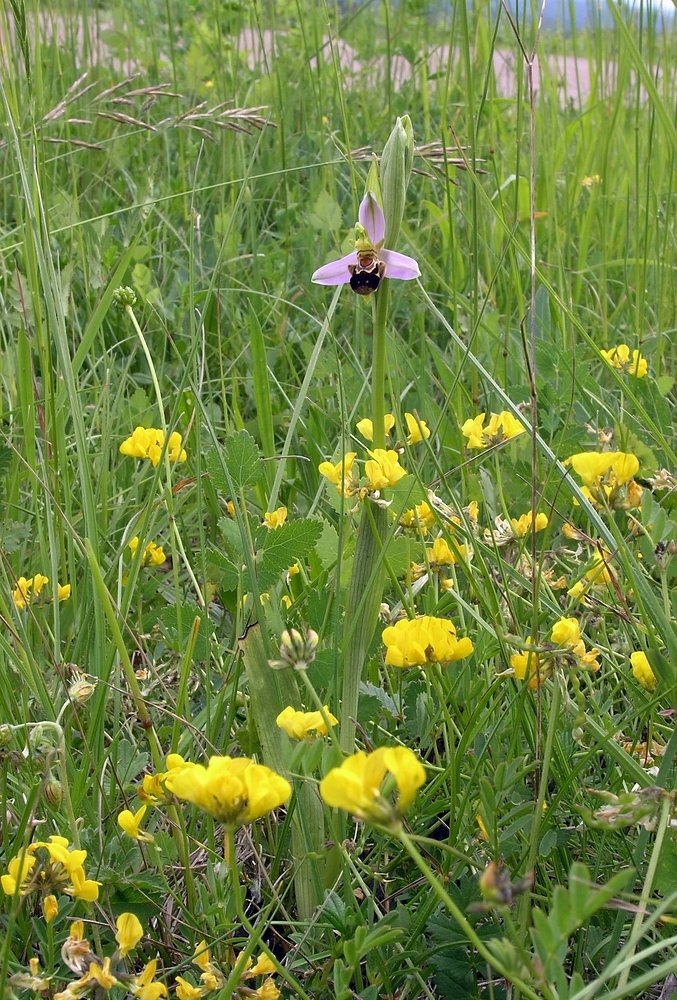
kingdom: Plantae
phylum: Tracheophyta
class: Liliopsida
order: Asparagales
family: Orchidaceae
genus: Ophrys
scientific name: Ophrys apifera
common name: Bee orchid
